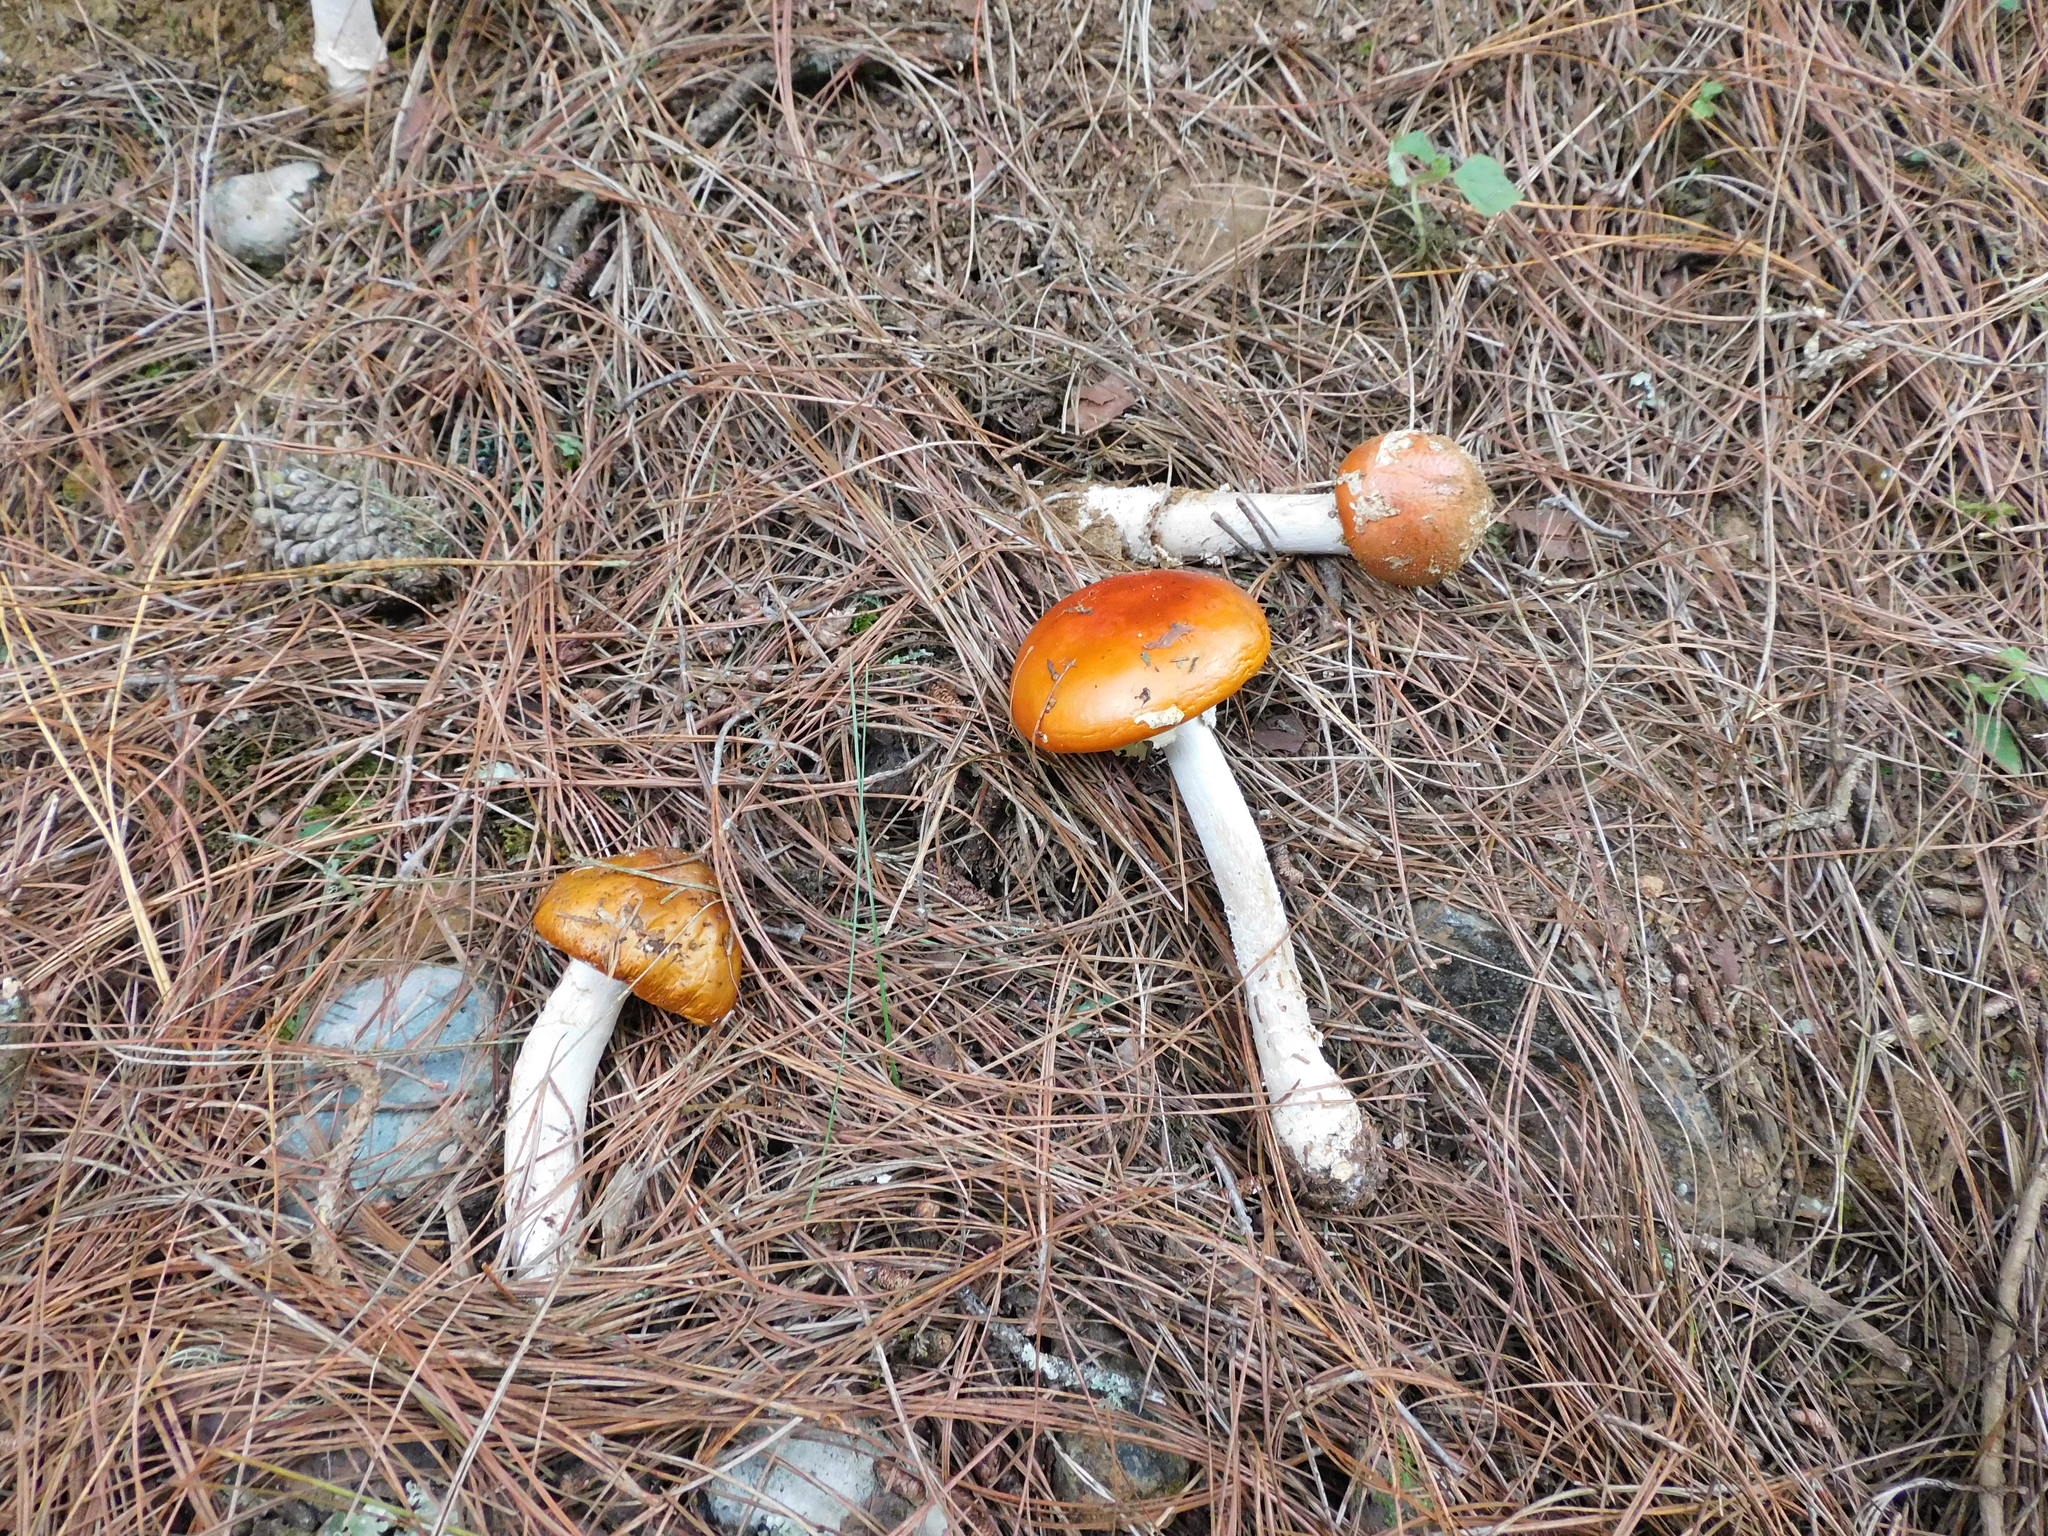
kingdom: Fungi
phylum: Basidiomycota
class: Agaricomycetes
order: Agaricales
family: Amanitaceae
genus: Amanita
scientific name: Amanita muscaria
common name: Fly agaric
